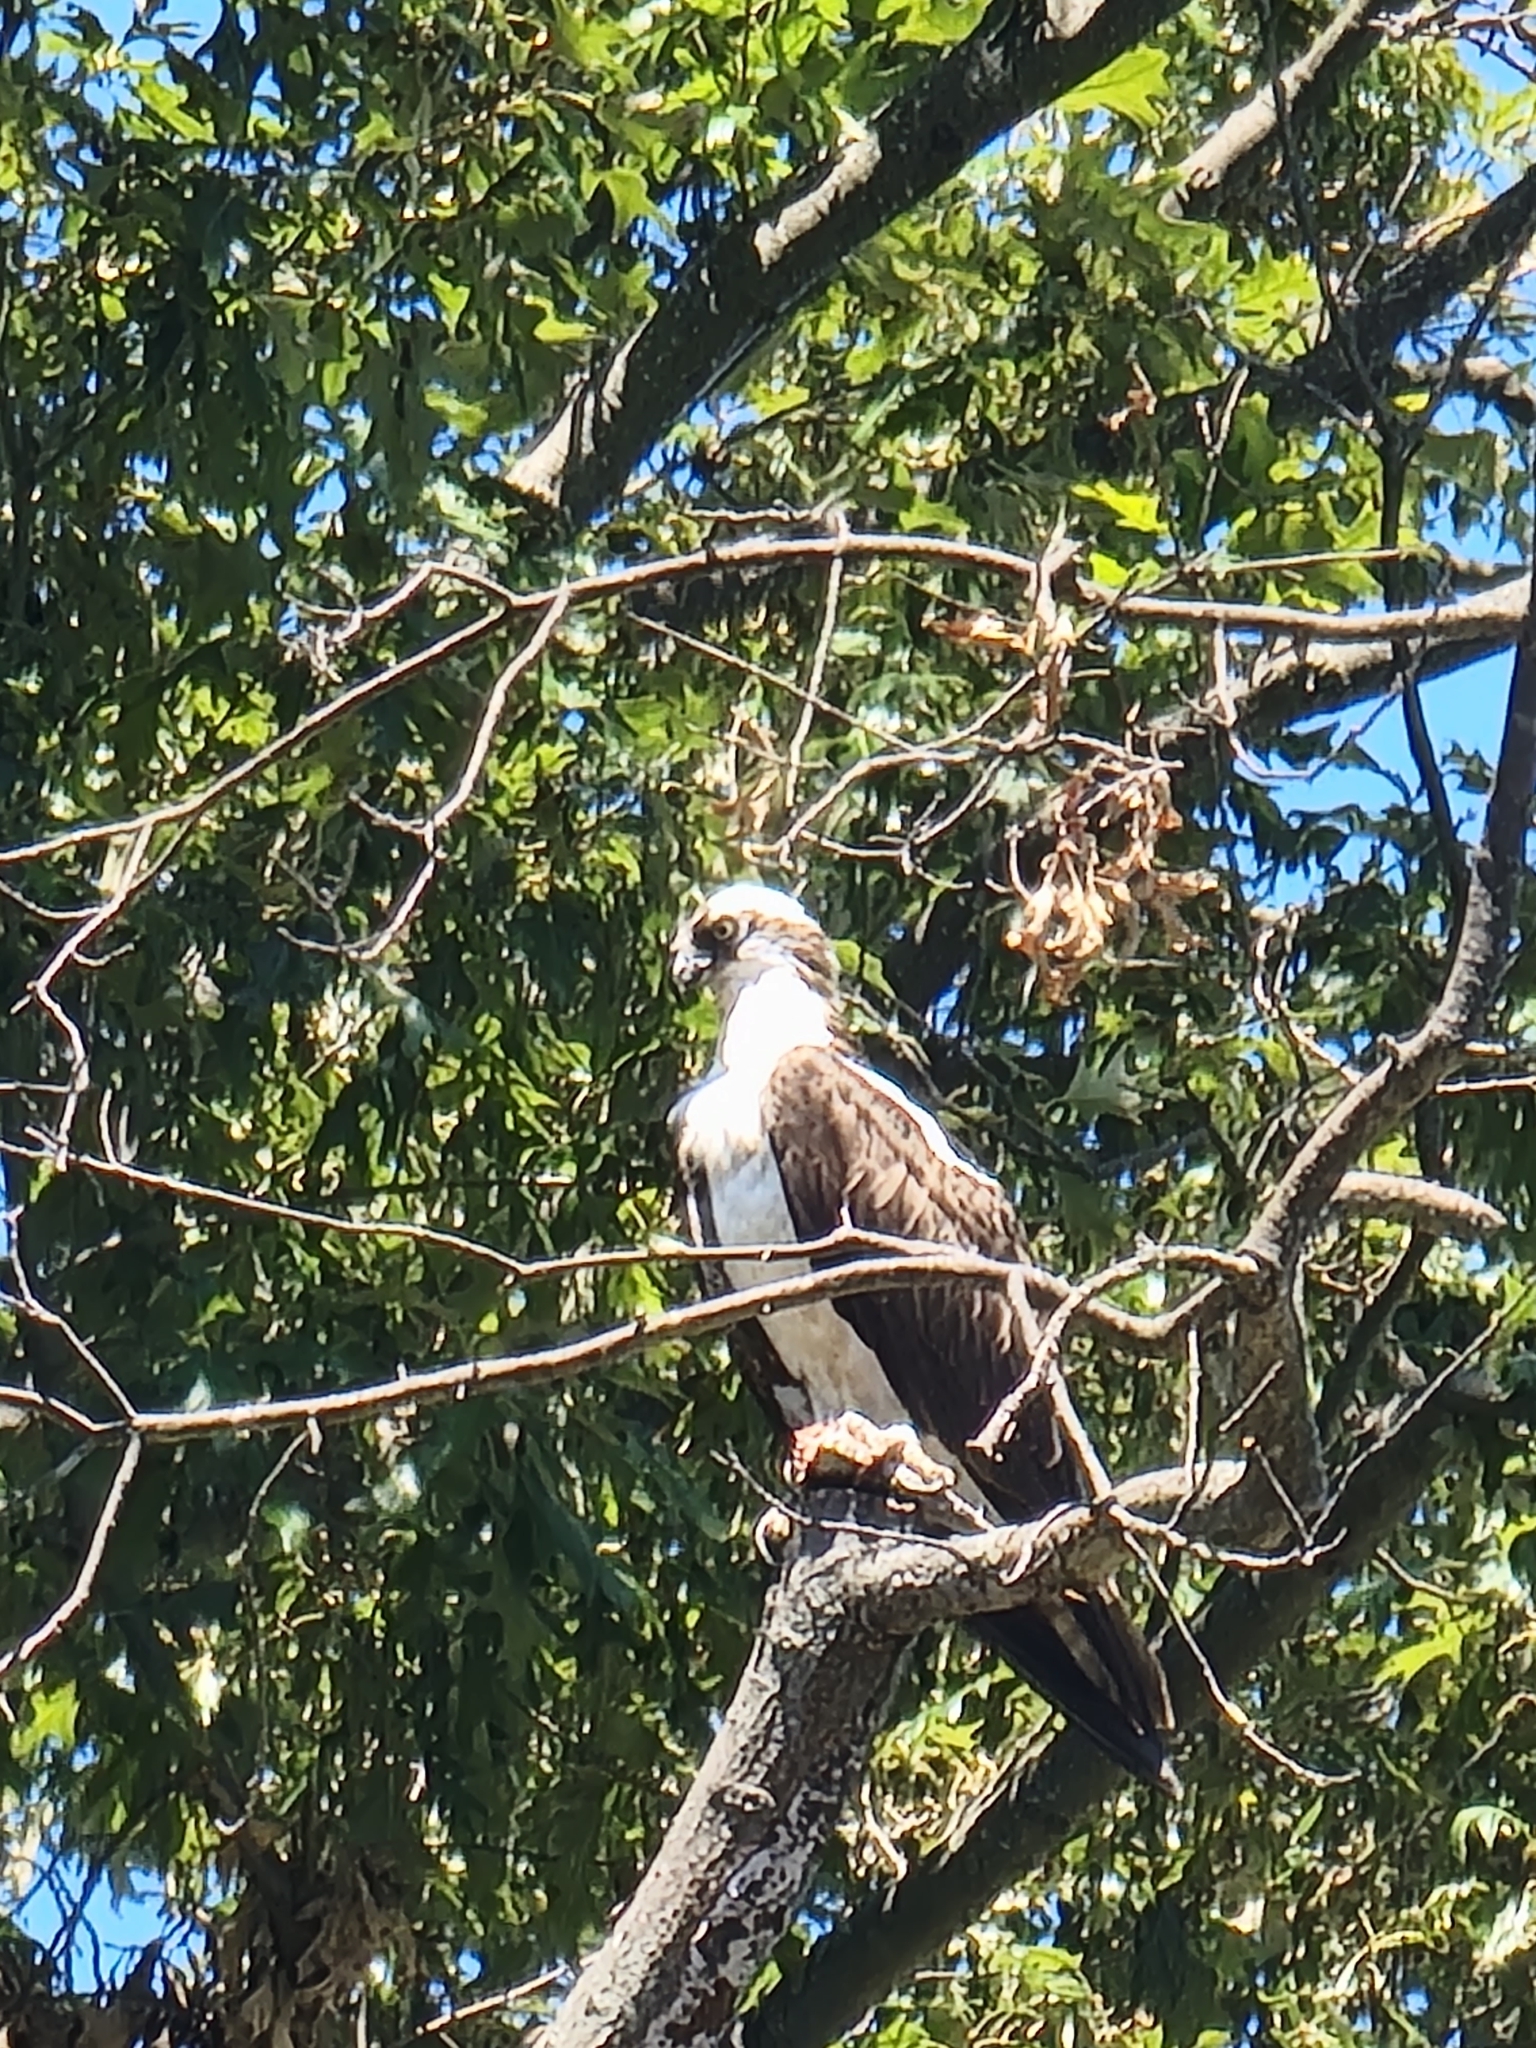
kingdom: Animalia
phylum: Chordata
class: Aves
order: Accipitriformes
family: Pandionidae
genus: Pandion
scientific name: Pandion haliaetus
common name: Osprey
